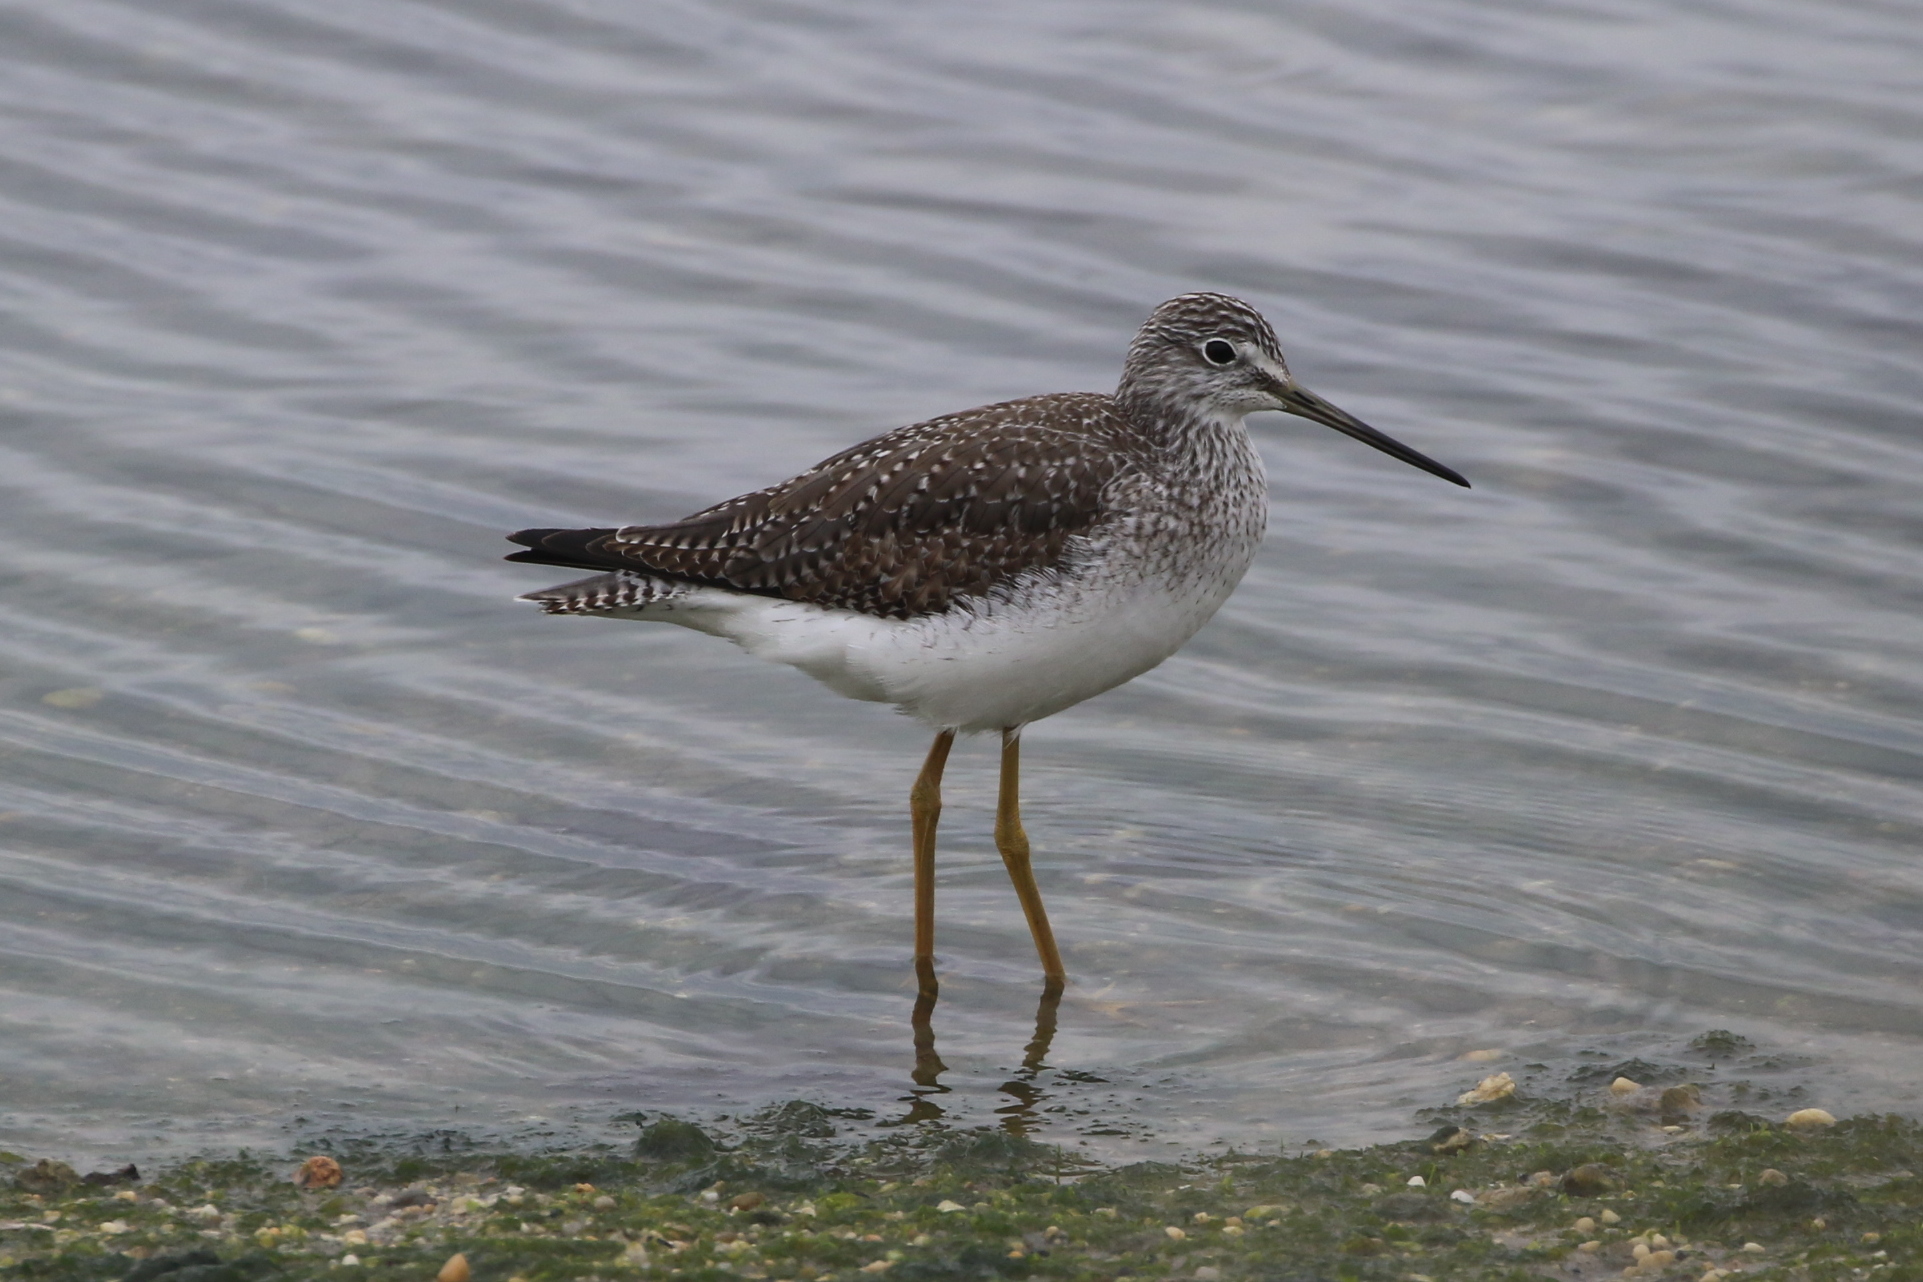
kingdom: Animalia
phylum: Chordata
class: Aves
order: Charadriiformes
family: Scolopacidae
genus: Tringa
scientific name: Tringa melanoleuca
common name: Greater yellowlegs
